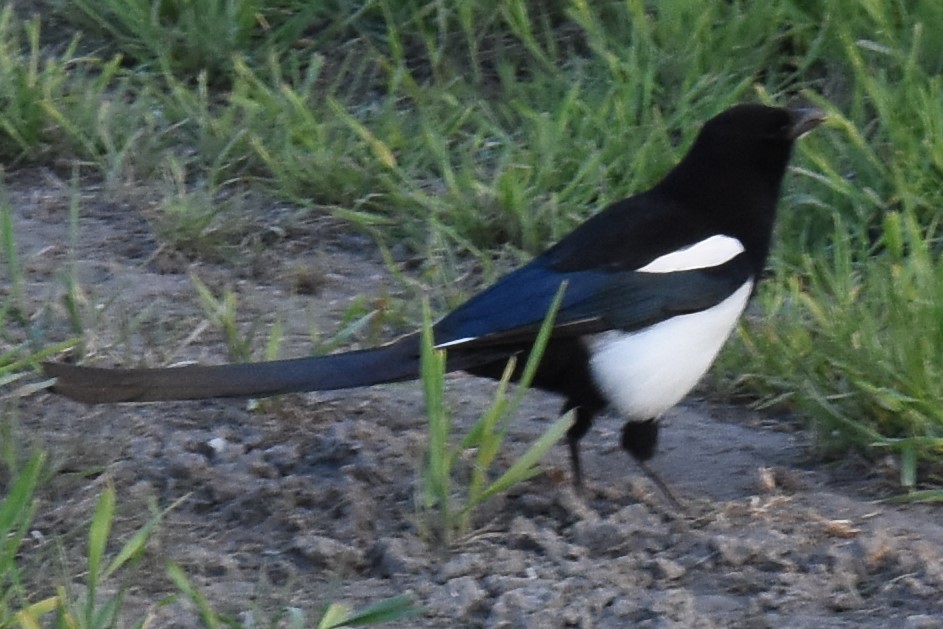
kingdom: Animalia
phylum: Chordata
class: Aves
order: Passeriformes
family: Corvidae
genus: Pica
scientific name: Pica hudsonia
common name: Black-billed magpie
